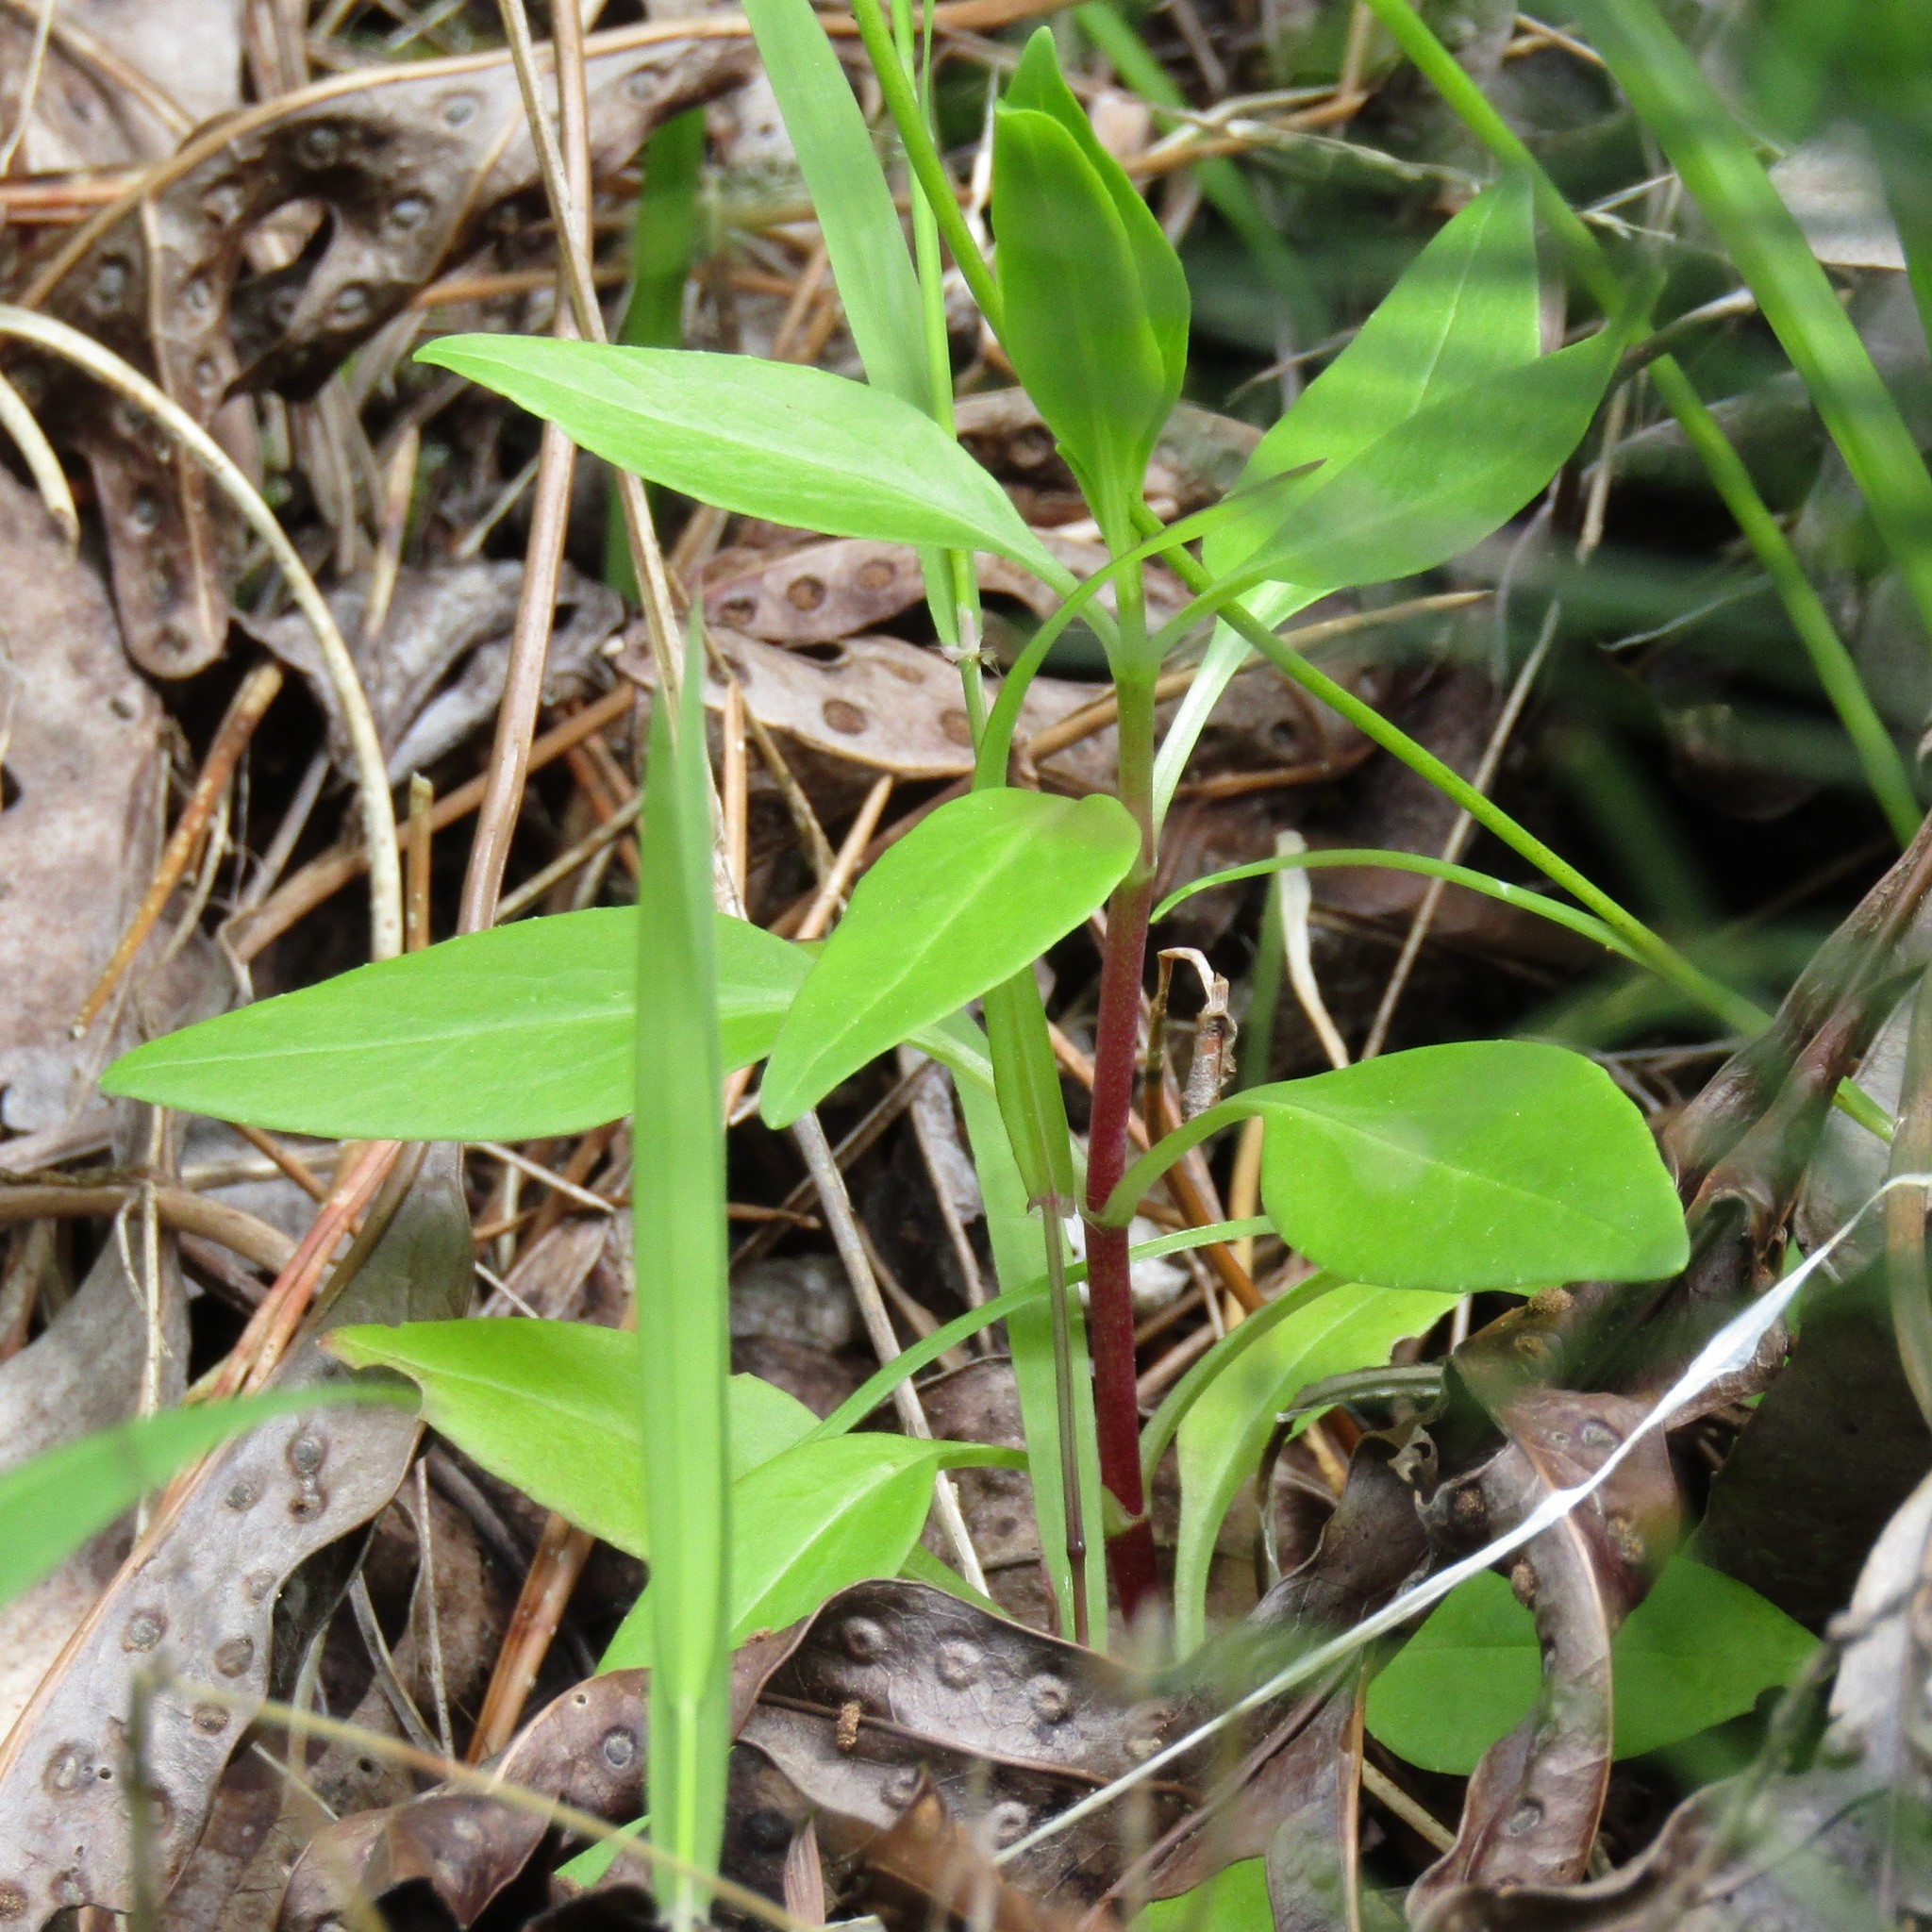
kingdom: Plantae
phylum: Tracheophyta
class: Magnoliopsida
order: Dipsacales
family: Caprifoliaceae
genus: Centranthus
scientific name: Centranthus ruber
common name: Red valerian
